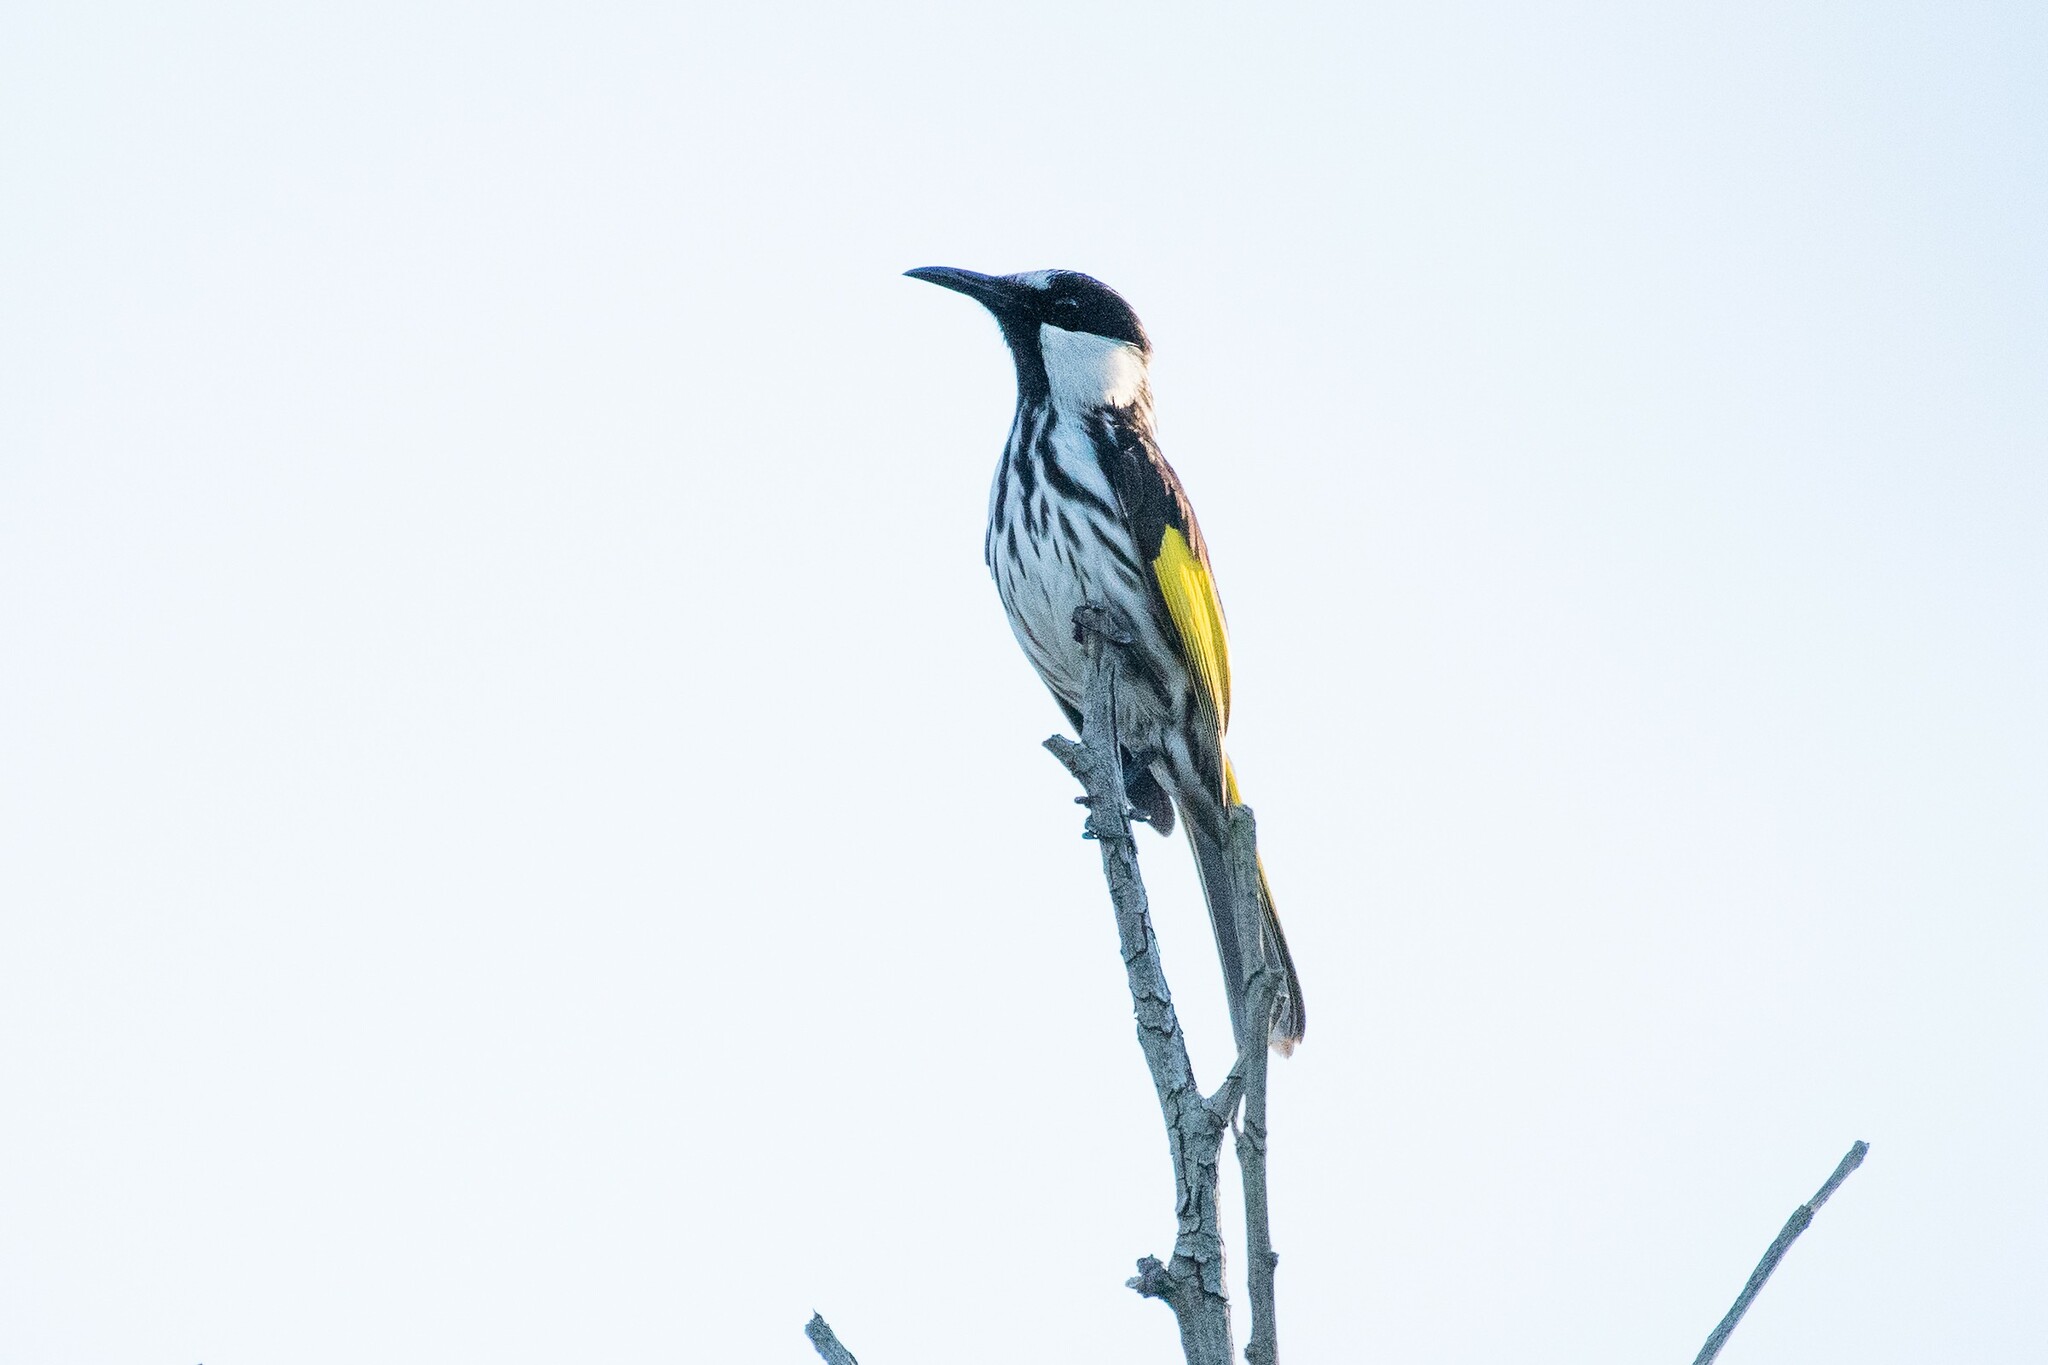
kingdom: Animalia
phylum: Chordata
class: Aves
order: Passeriformes
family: Meliphagidae
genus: Phylidonyris
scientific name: Phylidonyris niger
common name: White-cheeked honeyeater
